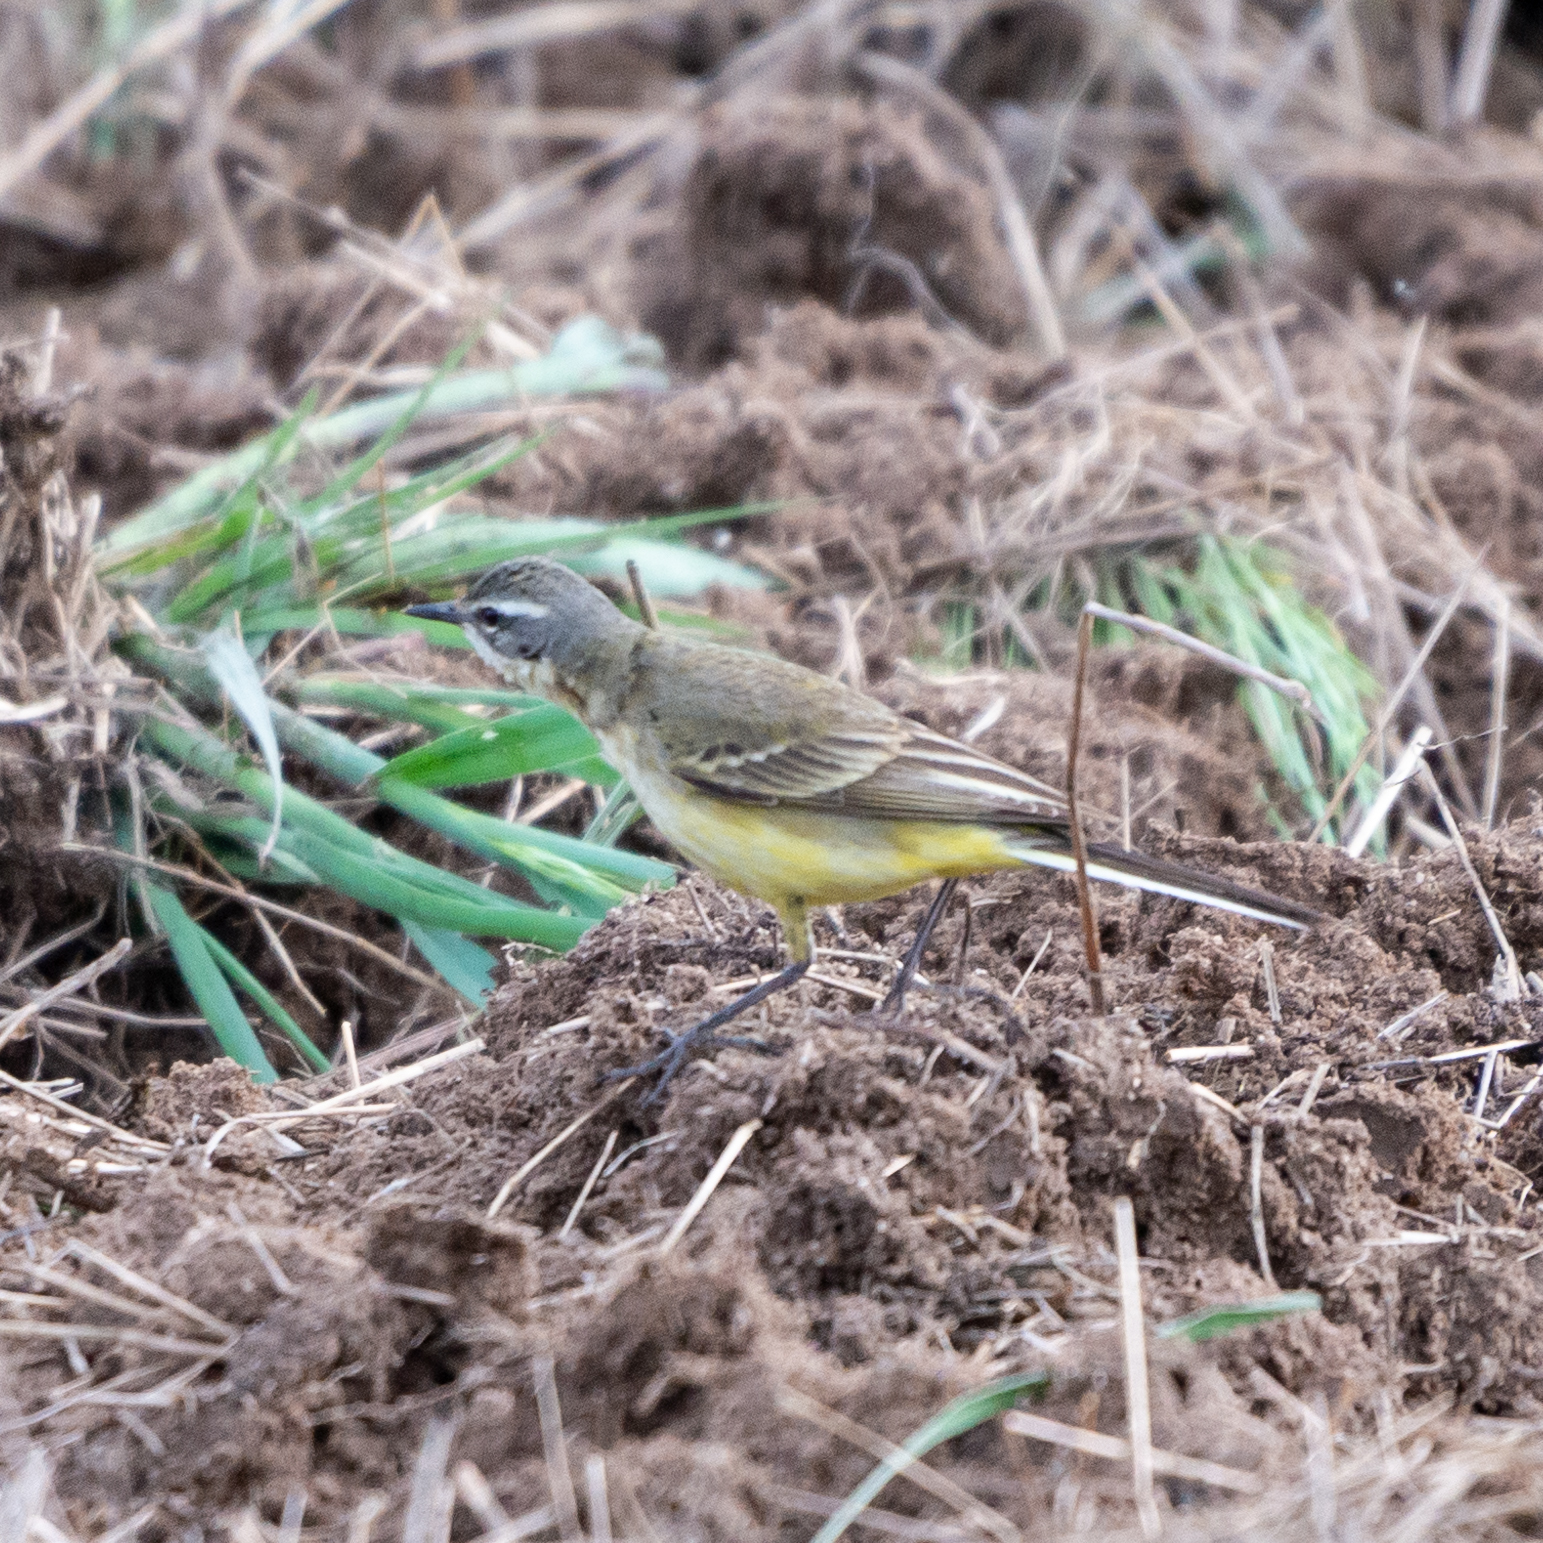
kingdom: Animalia
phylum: Chordata
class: Aves
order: Passeriformes
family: Motacillidae
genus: Motacilla
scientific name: Motacilla flava
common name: Western yellow wagtail
